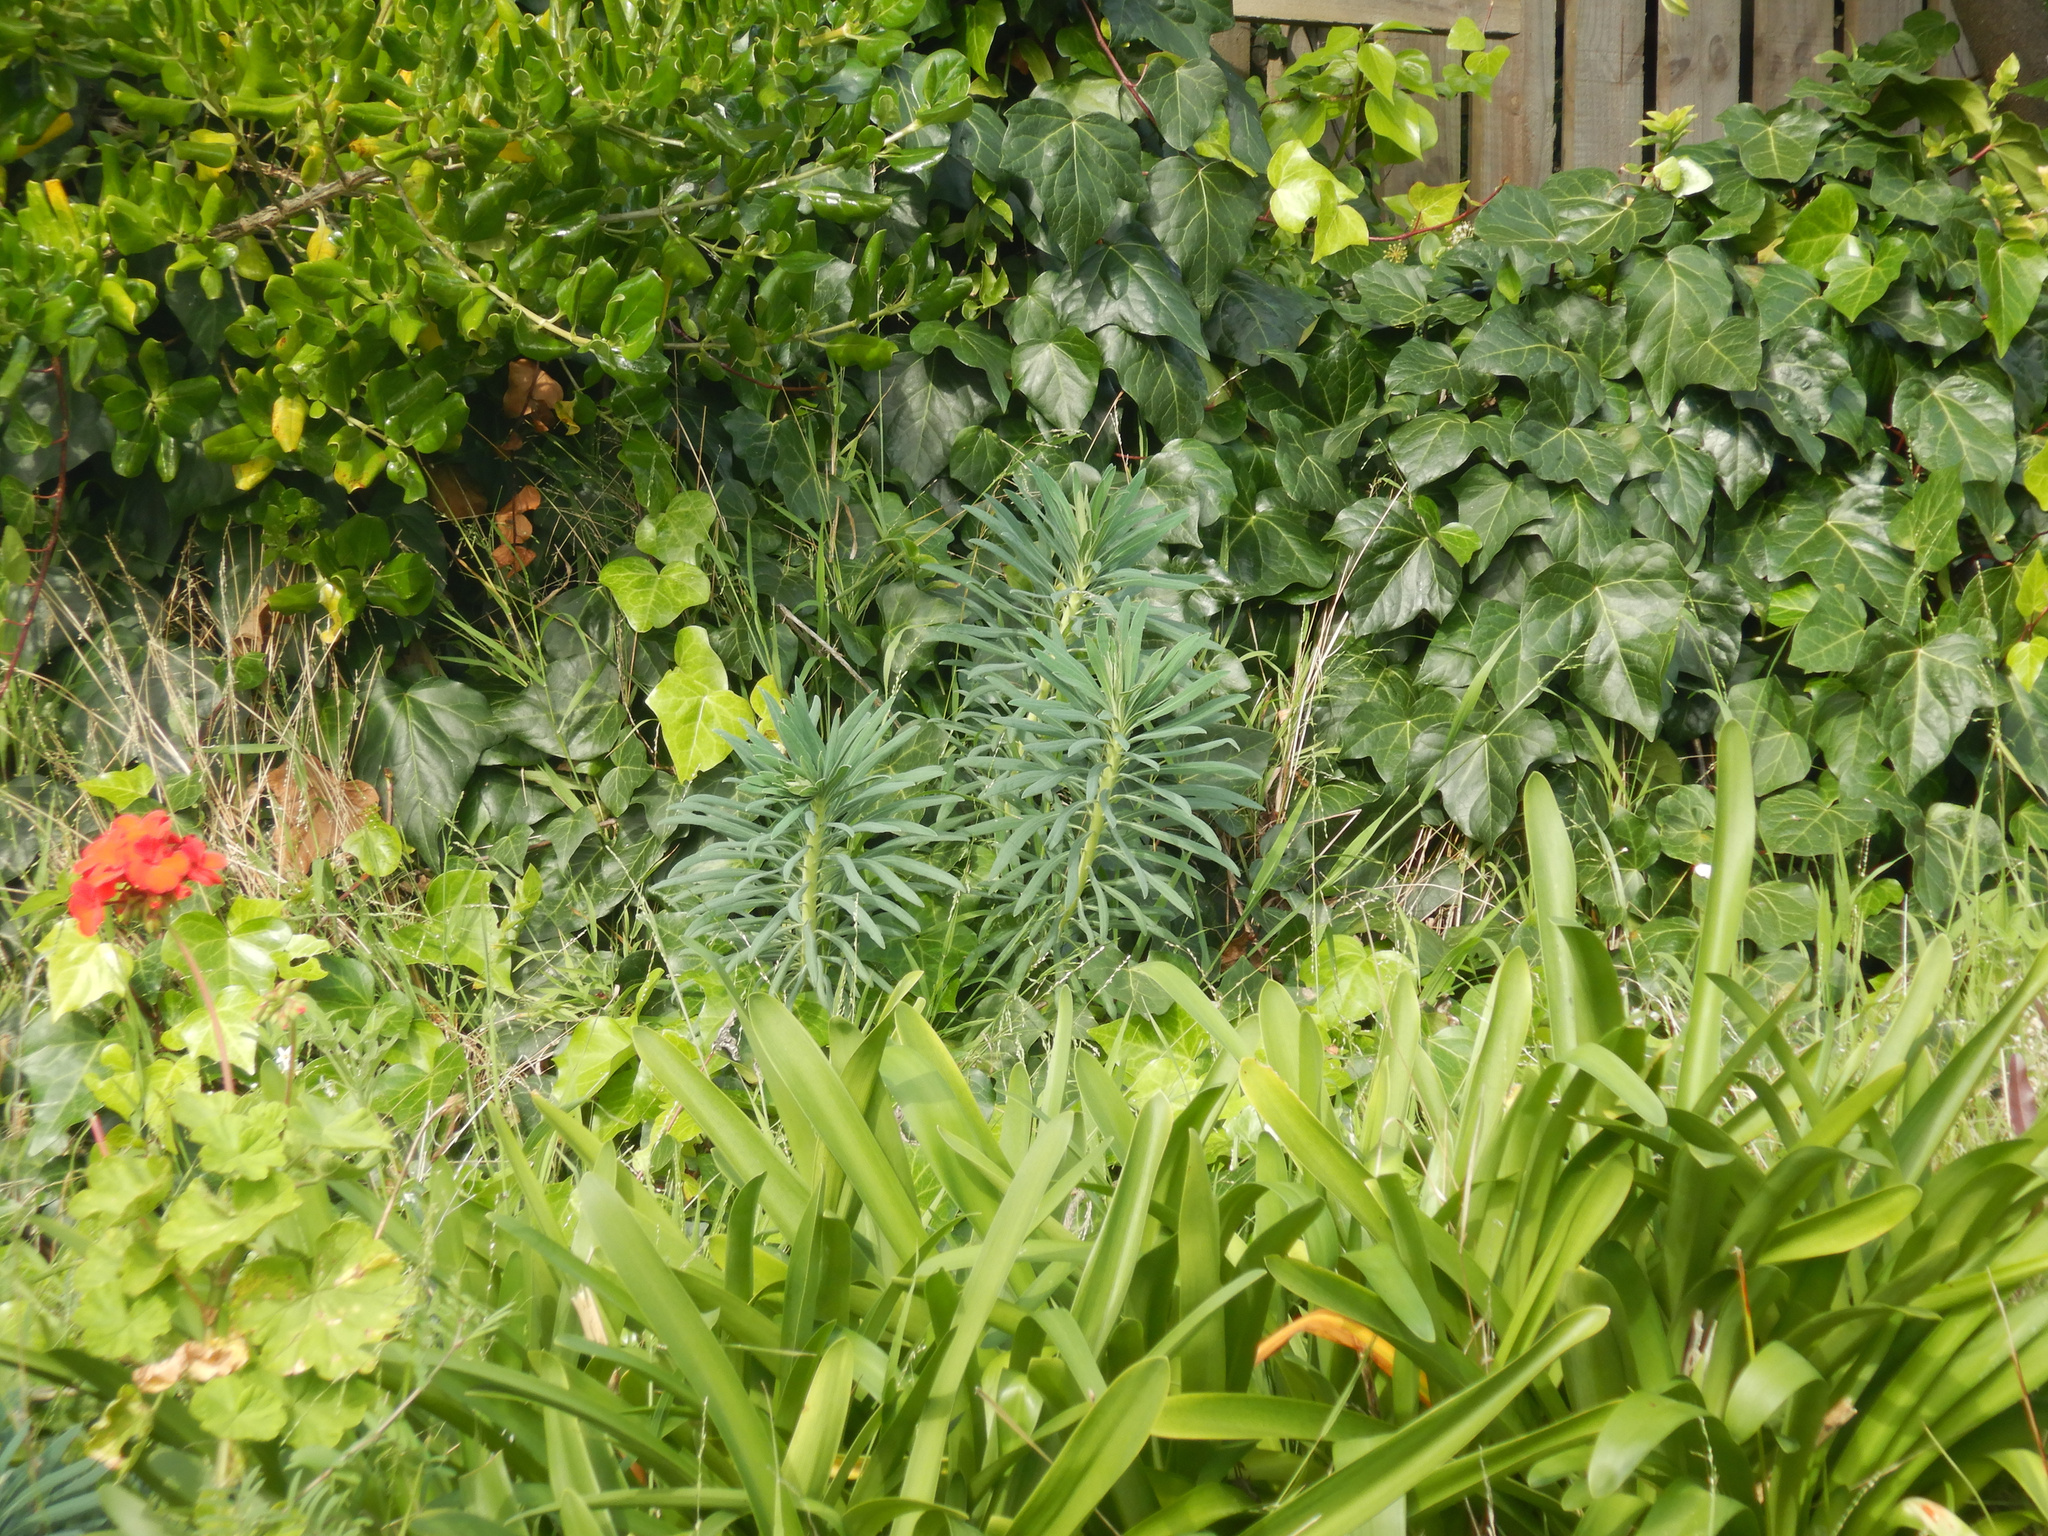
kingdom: Plantae
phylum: Tracheophyta
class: Magnoliopsida
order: Malpighiales
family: Euphorbiaceae
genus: Euphorbia
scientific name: Euphorbia characias
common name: Mediterranean spurge
